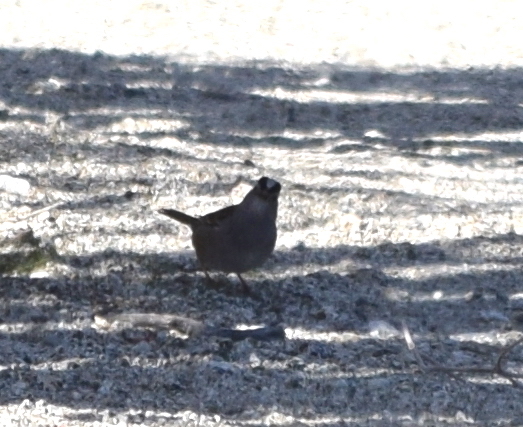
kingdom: Animalia
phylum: Chordata
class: Aves
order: Passeriformes
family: Passerellidae
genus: Zonotrichia
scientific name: Zonotrichia leucophrys
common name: White-crowned sparrow
